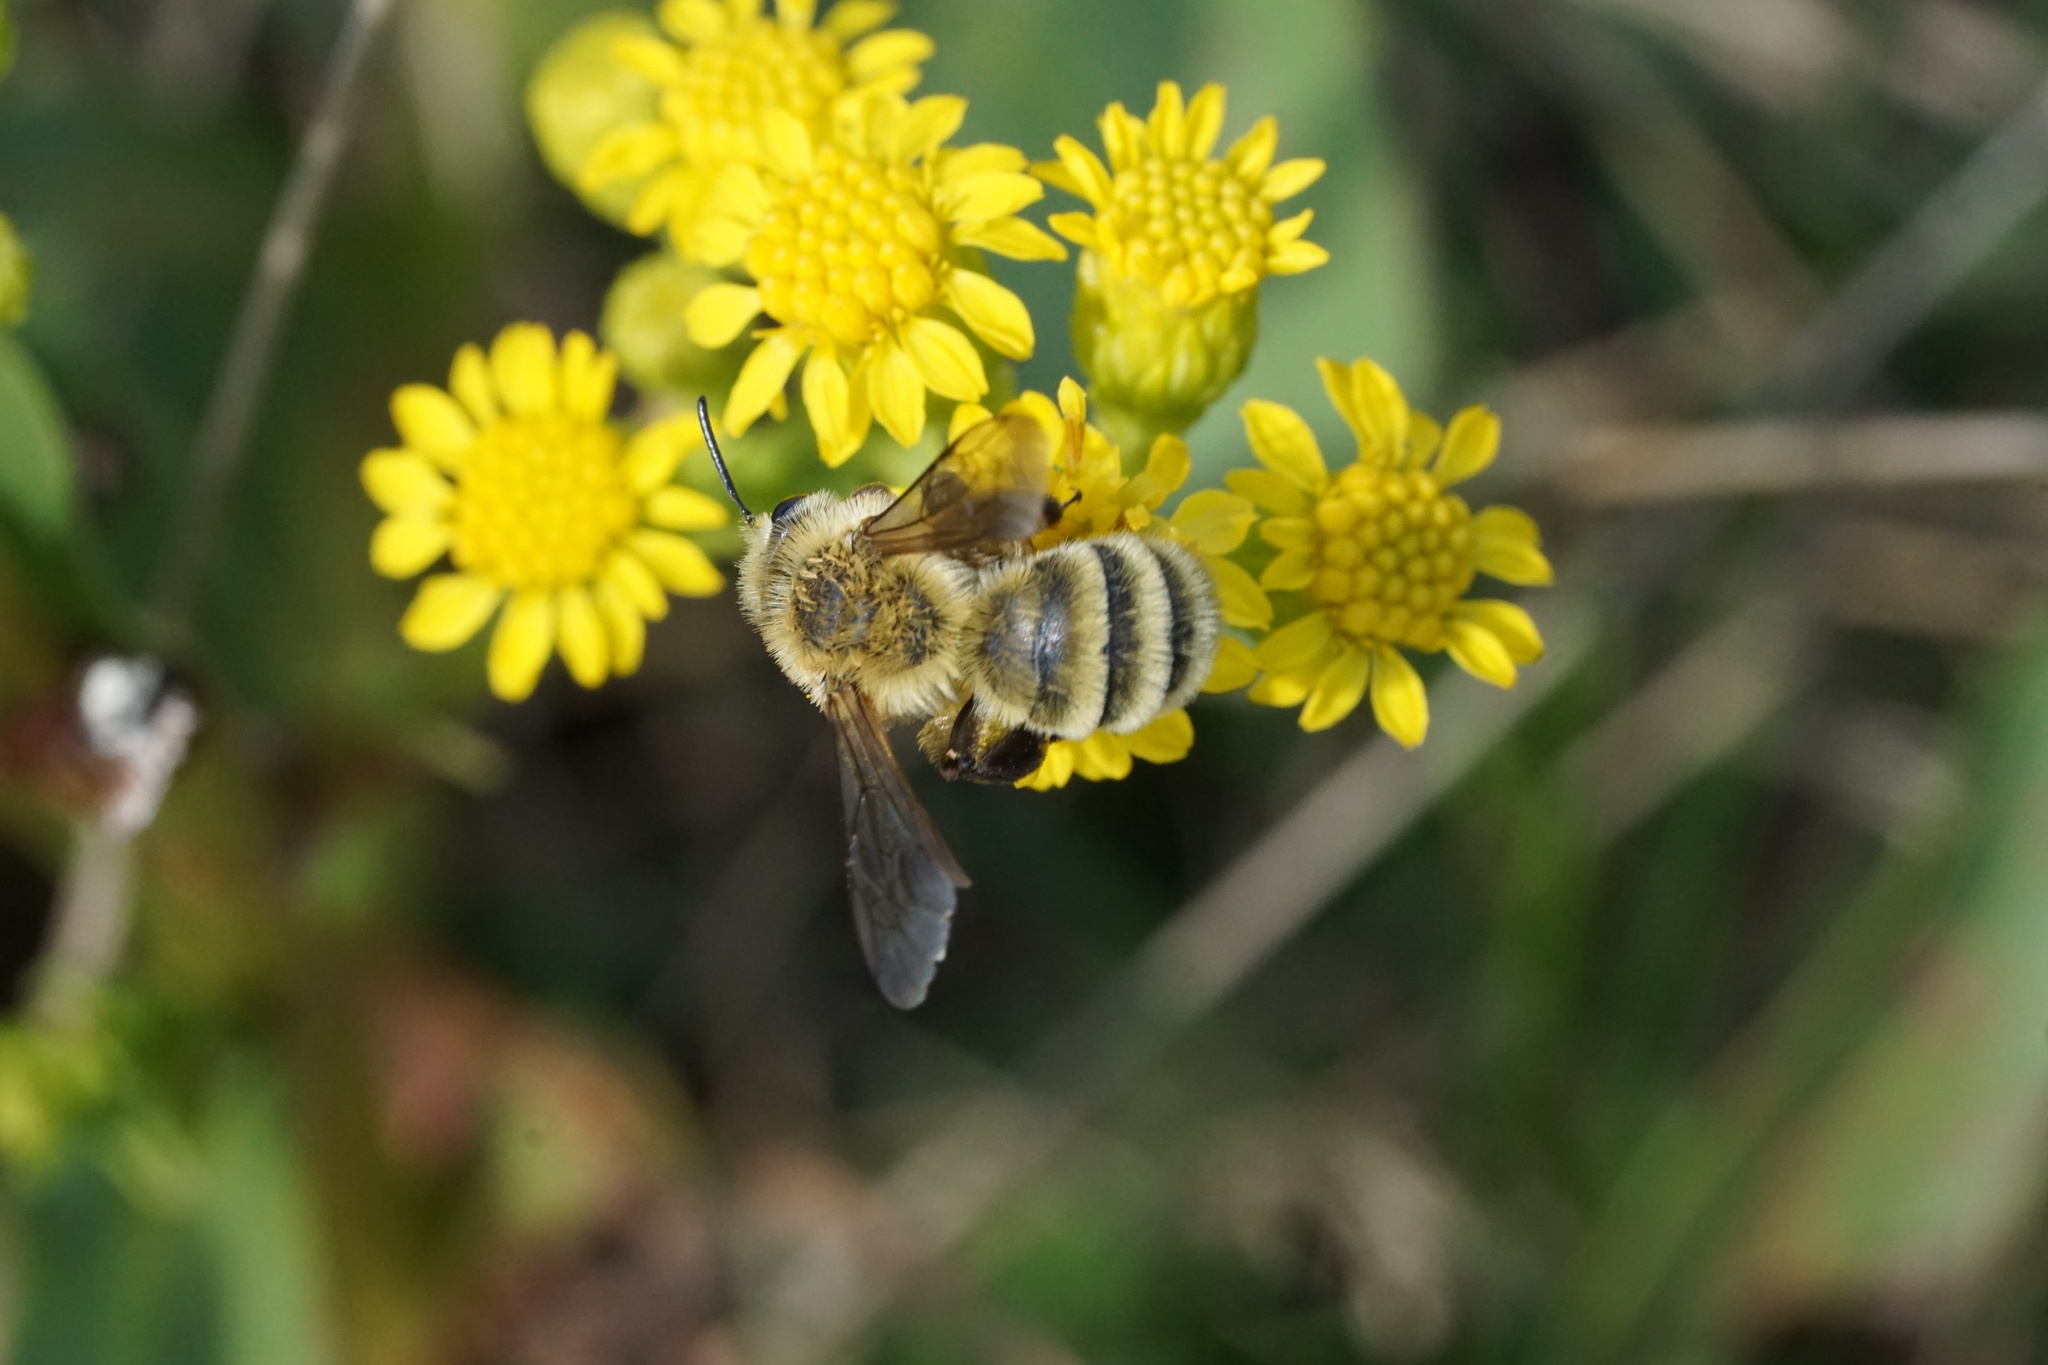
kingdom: Animalia
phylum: Arthropoda
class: Insecta
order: Hymenoptera
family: Andrenidae
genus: Andrena
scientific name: Andrena hirticincta
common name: Hairy-banded mining bee
